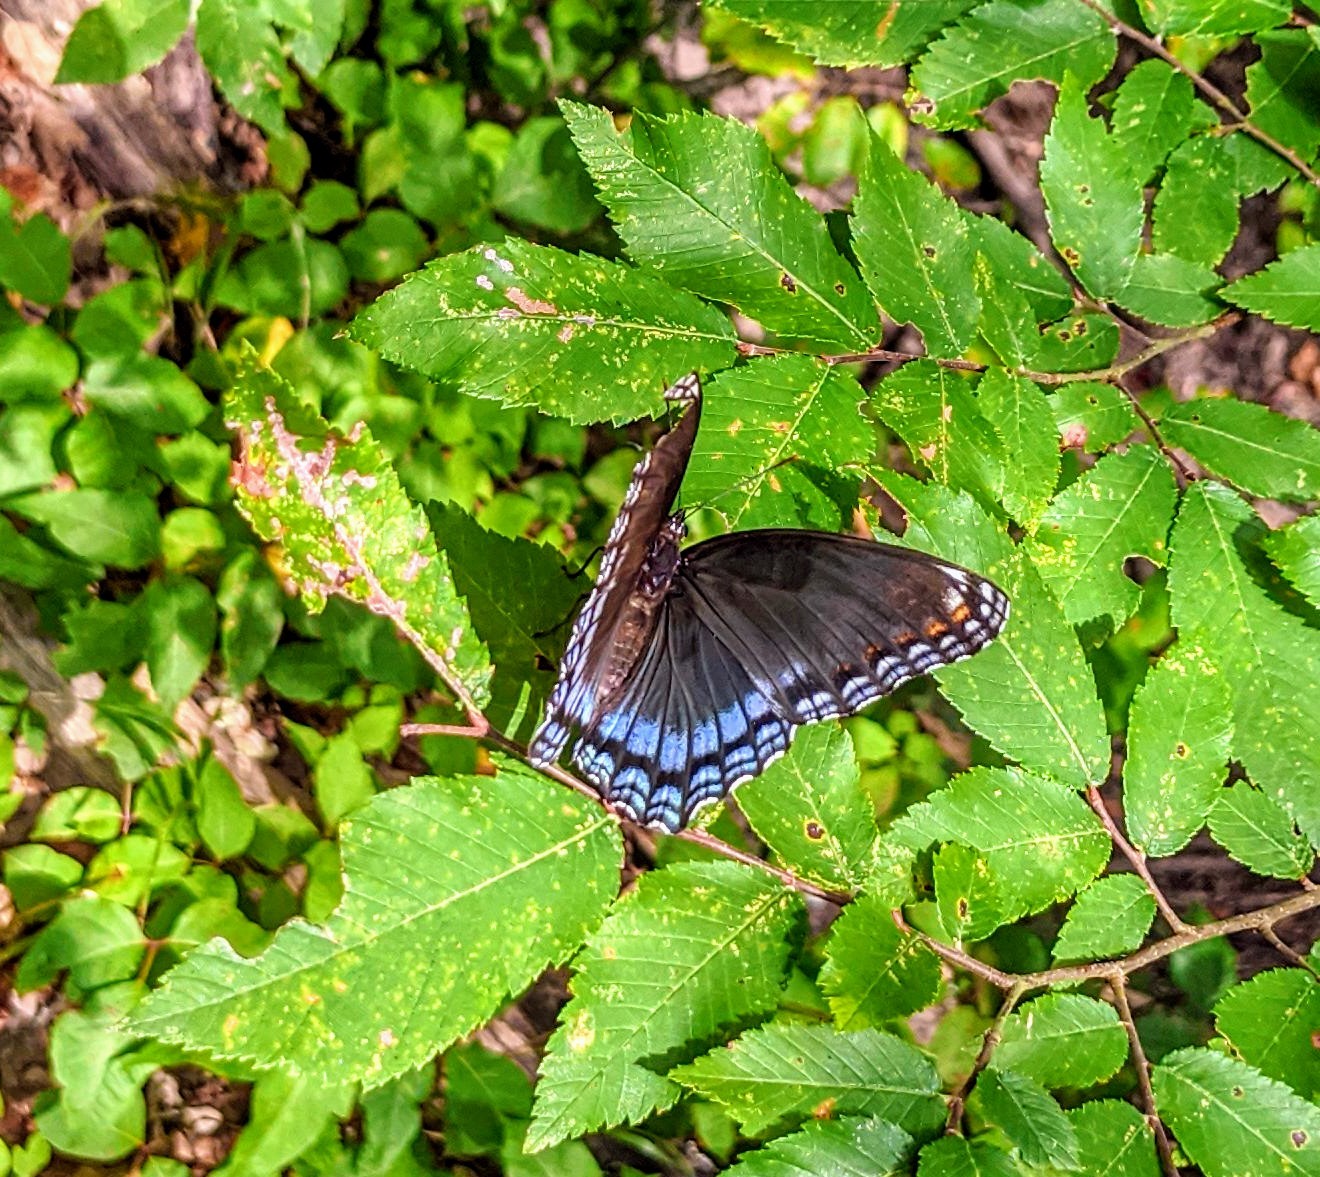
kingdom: Animalia
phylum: Arthropoda
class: Insecta
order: Lepidoptera
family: Nymphalidae
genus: Limenitis
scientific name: Limenitis astyanax
